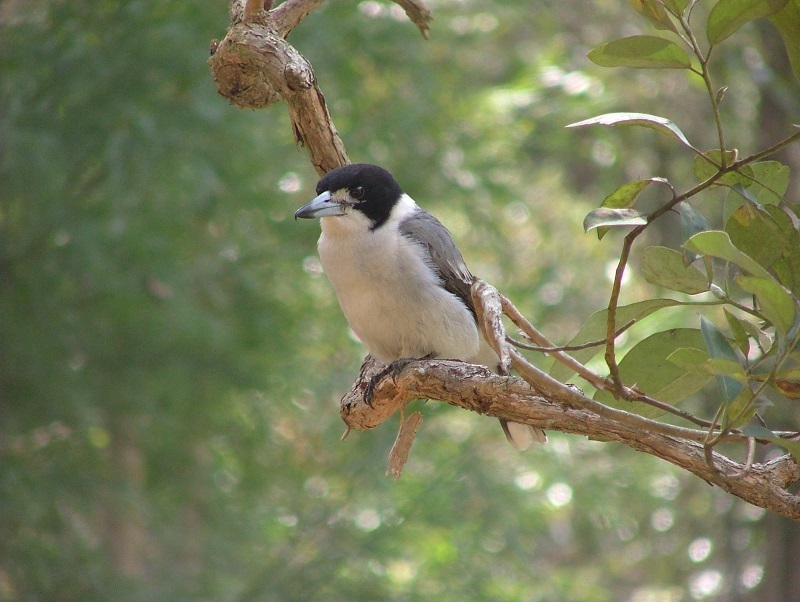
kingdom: Animalia
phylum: Chordata
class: Aves
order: Passeriformes
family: Cracticidae
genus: Cracticus
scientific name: Cracticus torquatus
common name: Grey butcherbird
